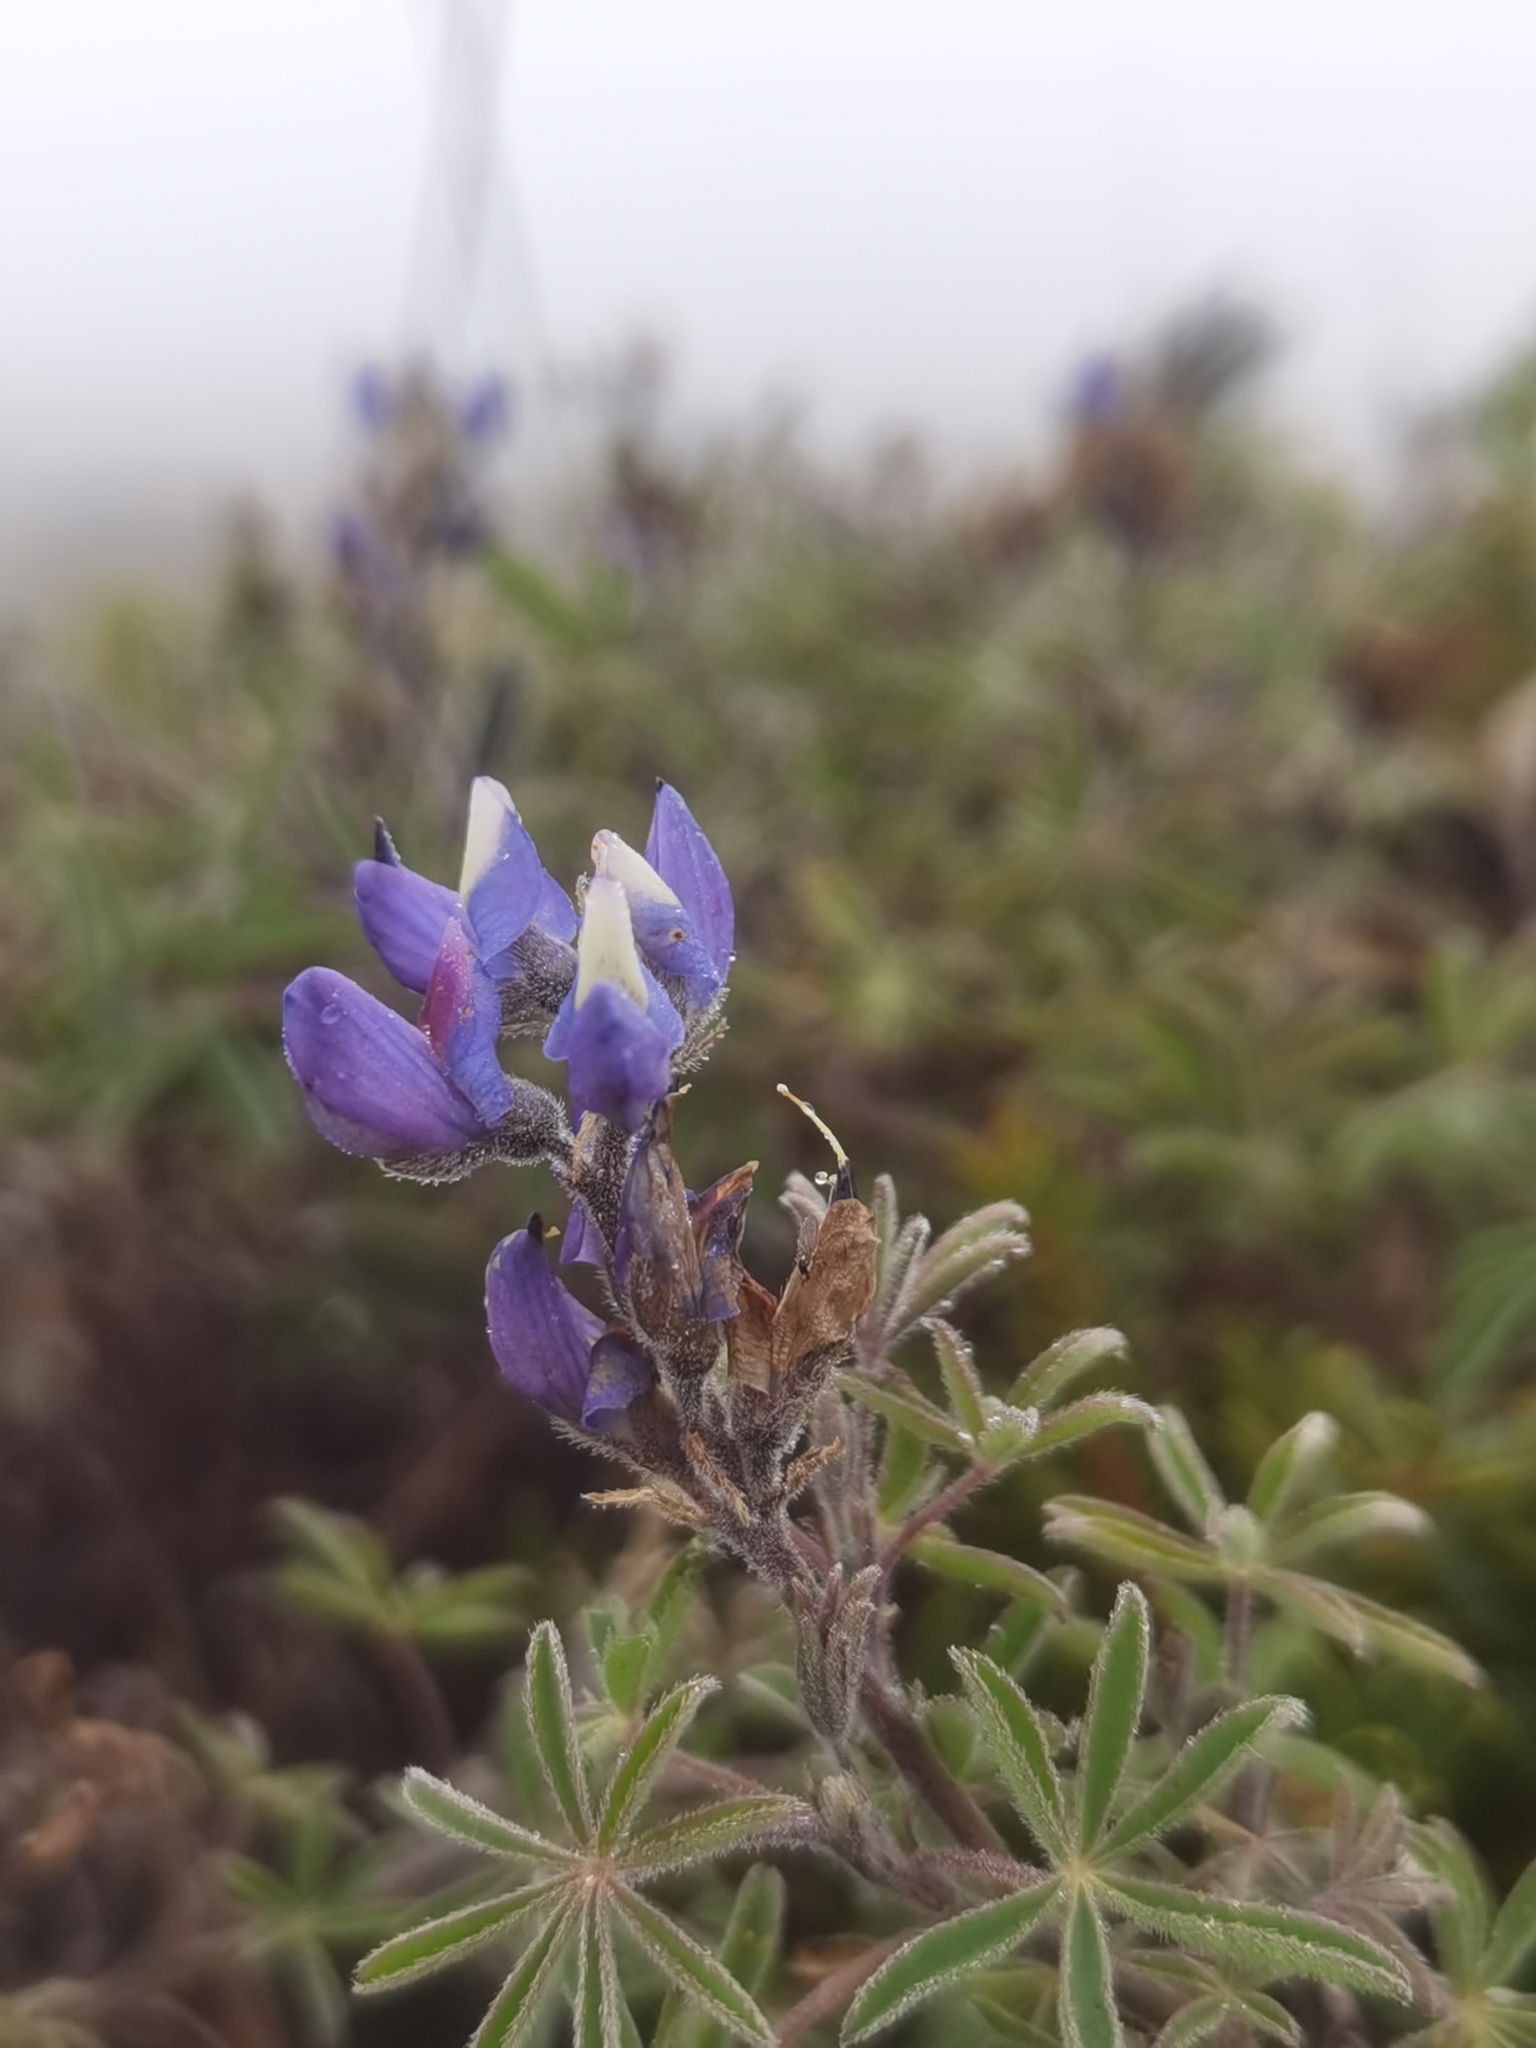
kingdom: Plantae
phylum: Tracheophyta
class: Magnoliopsida
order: Fabales
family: Fabaceae
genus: Lupinus
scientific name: Lupinus costaricensis
